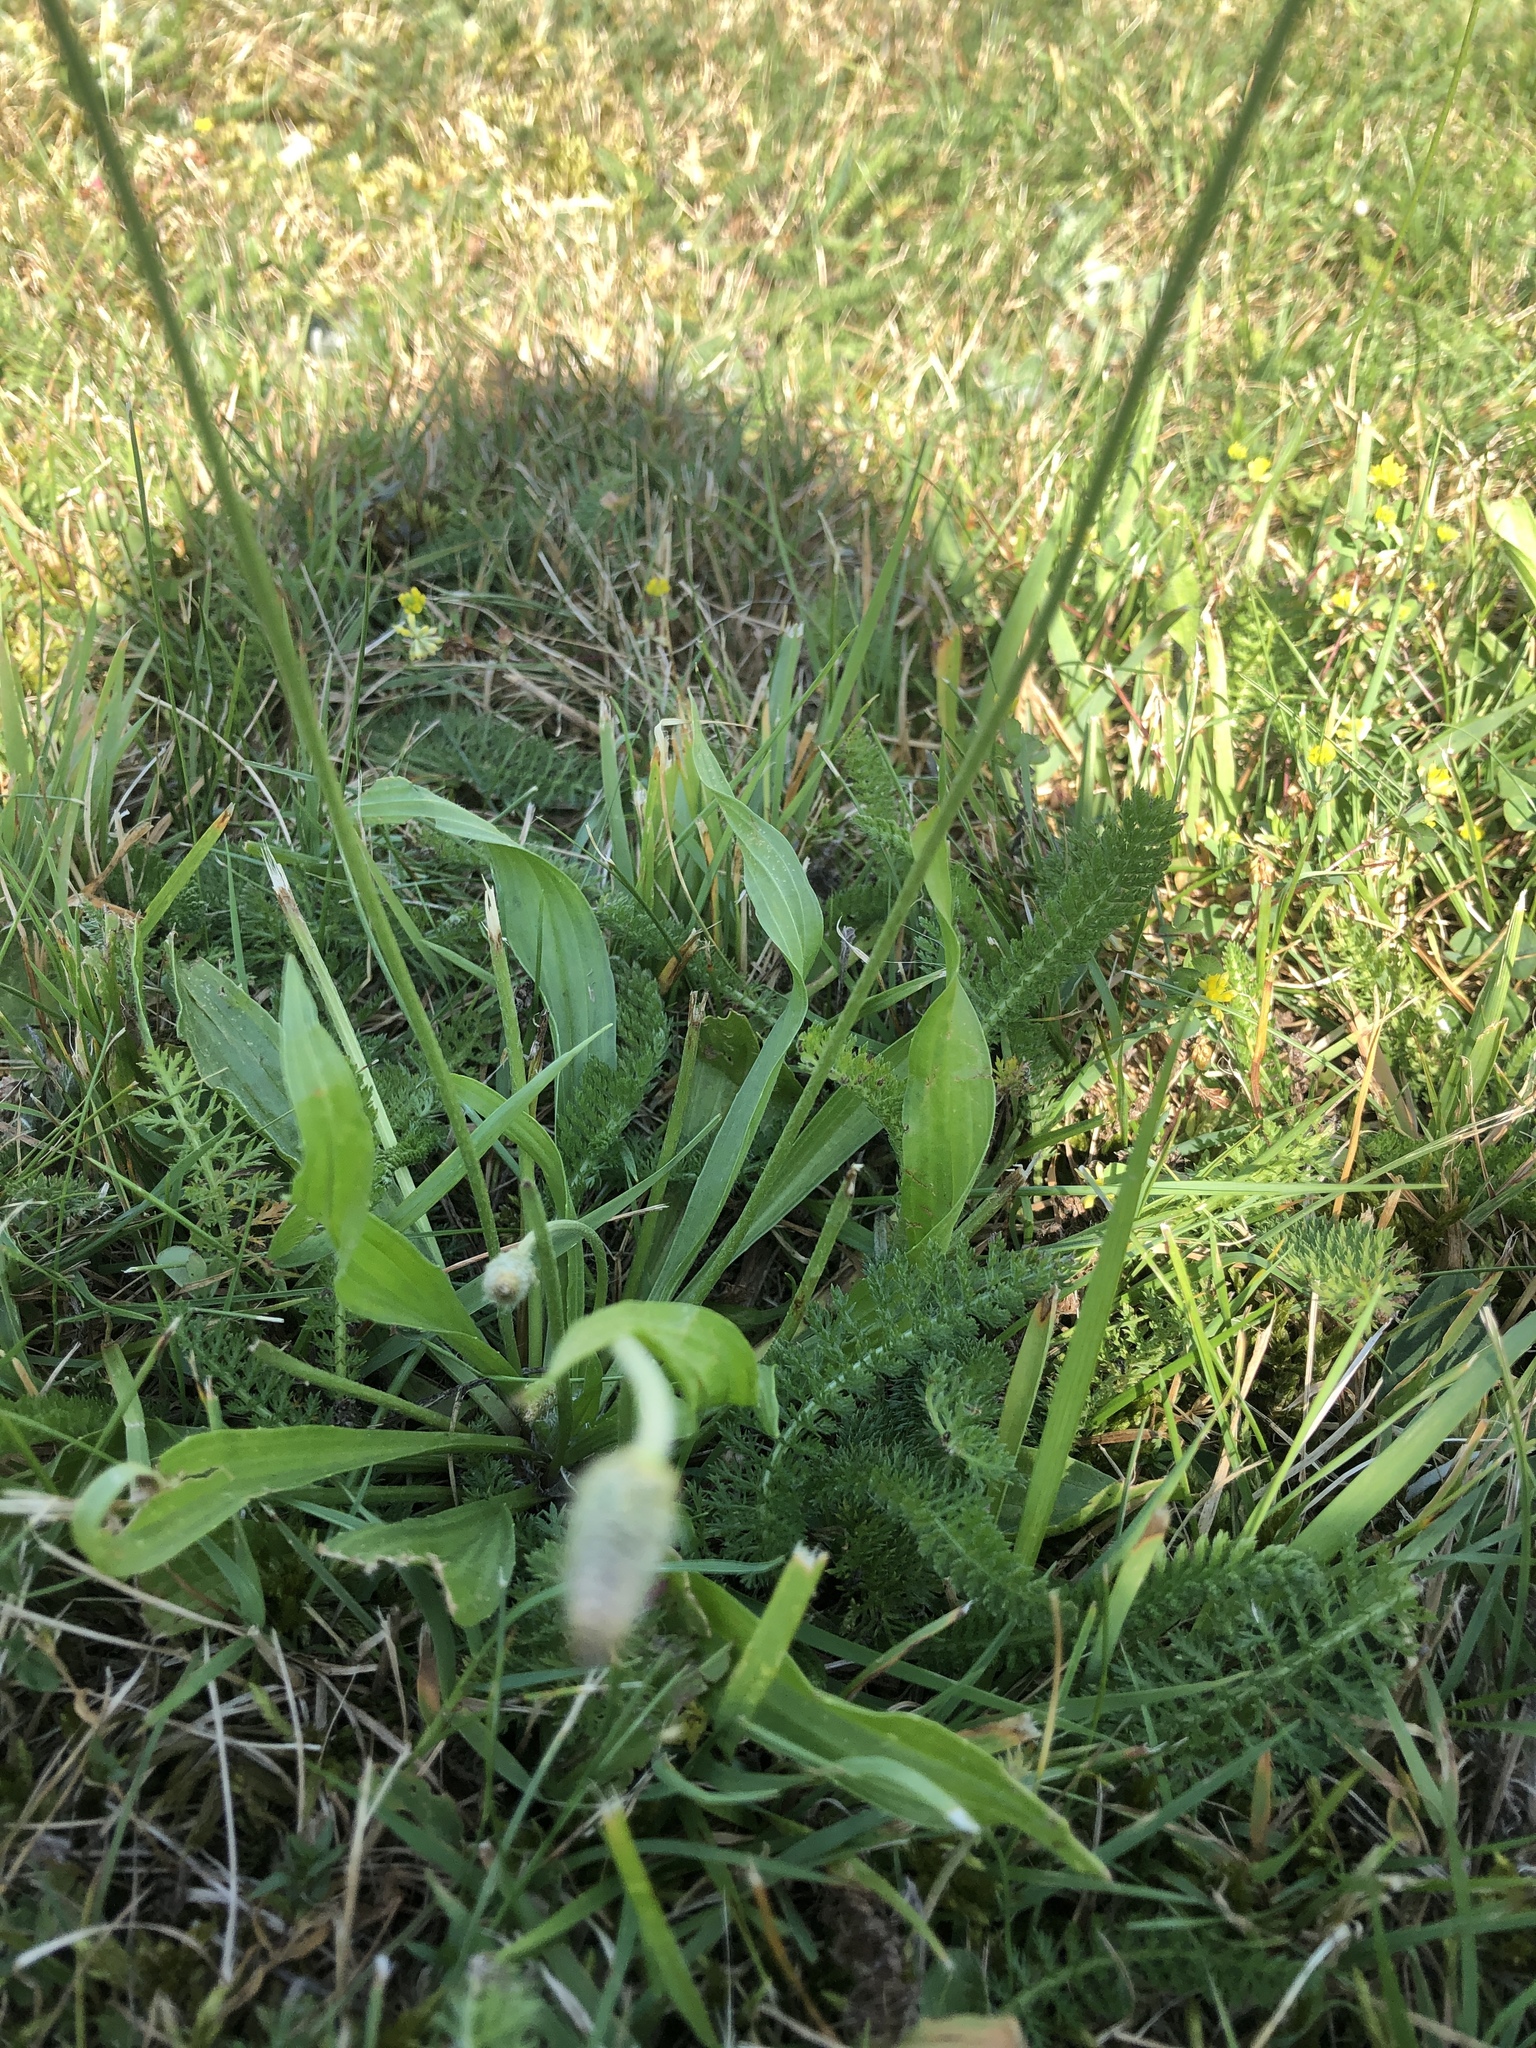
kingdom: Plantae
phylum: Tracheophyta
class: Magnoliopsida
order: Lamiales
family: Plantaginaceae
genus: Plantago
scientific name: Plantago lanceolata
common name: Ribwort plantain
